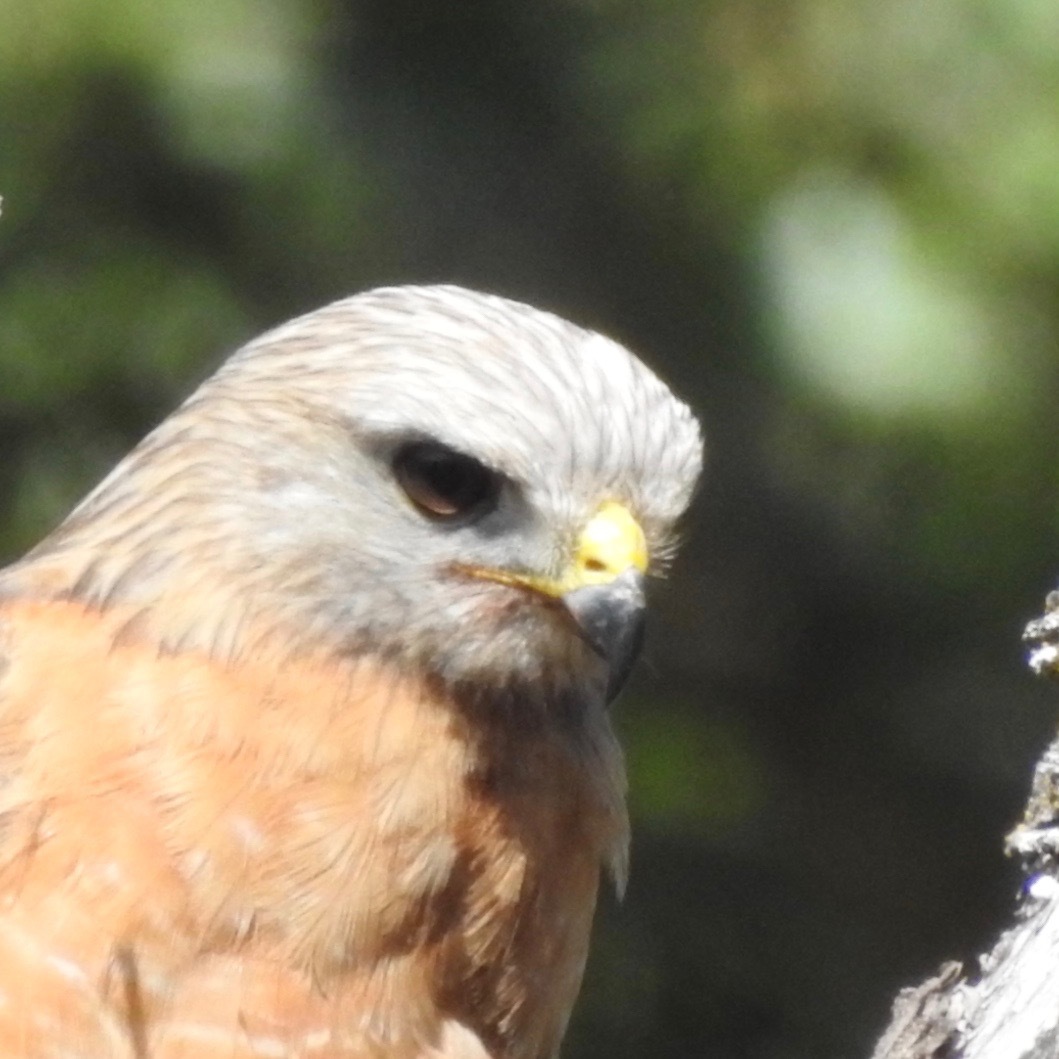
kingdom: Animalia
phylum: Chordata
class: Aves
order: Accipitriformes
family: Accipitridae
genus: Buteo
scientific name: Buteo lineatus
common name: Red-shouldered hawk
